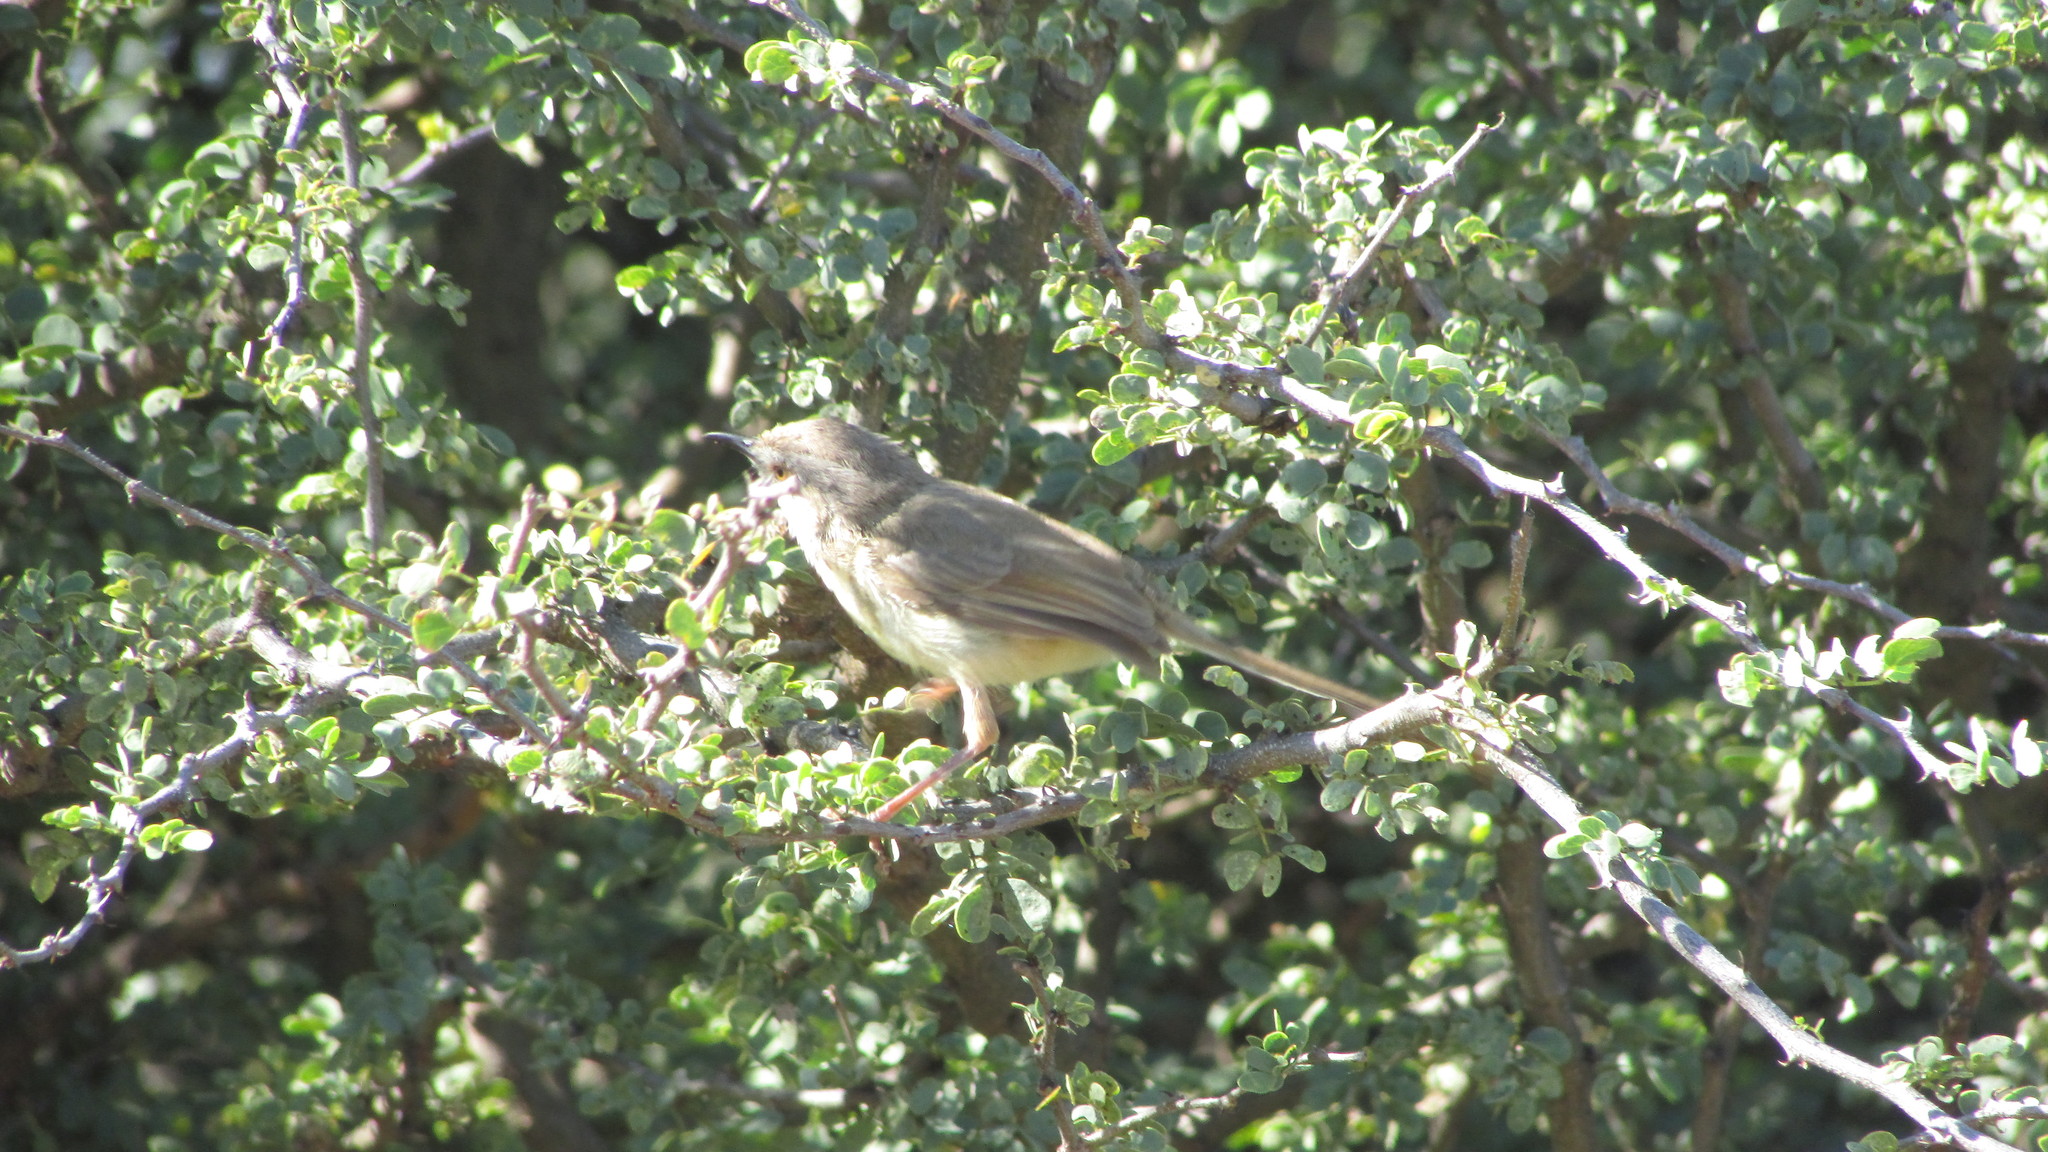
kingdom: Animalia
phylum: Chordata
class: Aves
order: Passeriformes
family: Cisticolidae
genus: Prinia
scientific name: Prinia flavicans
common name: Black-chested prinia
